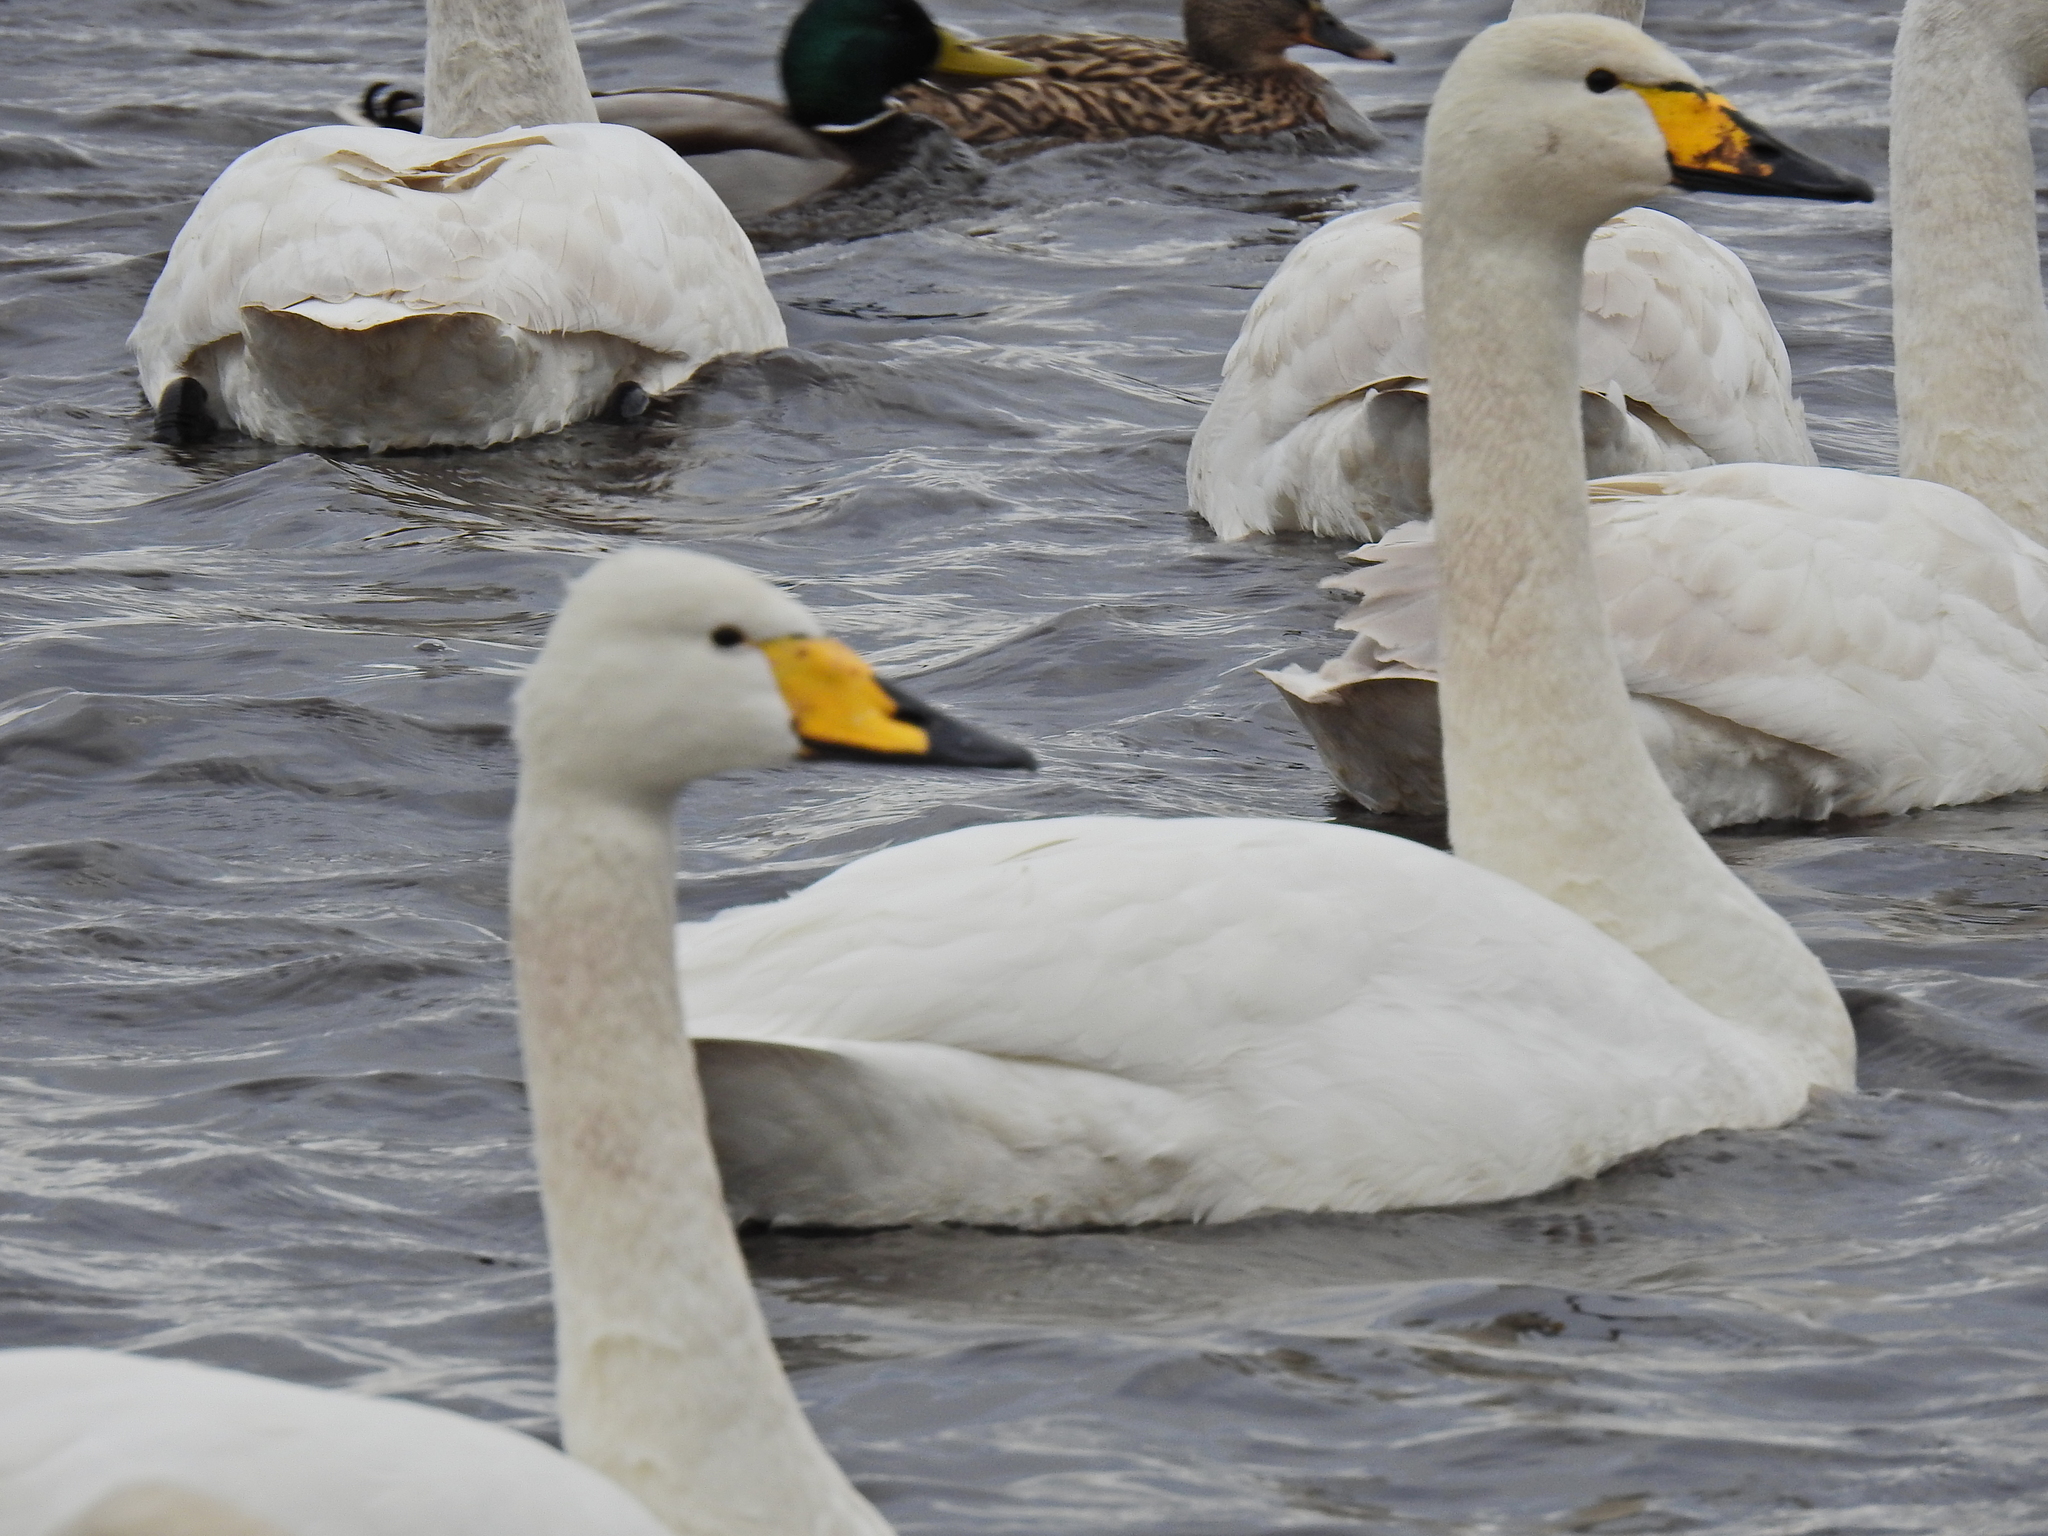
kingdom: Animalia
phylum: Chordata
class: Aves
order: Anseriformes
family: Anatidae
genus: Cygnus
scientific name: Cygnus cygnus
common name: Whooper swan
